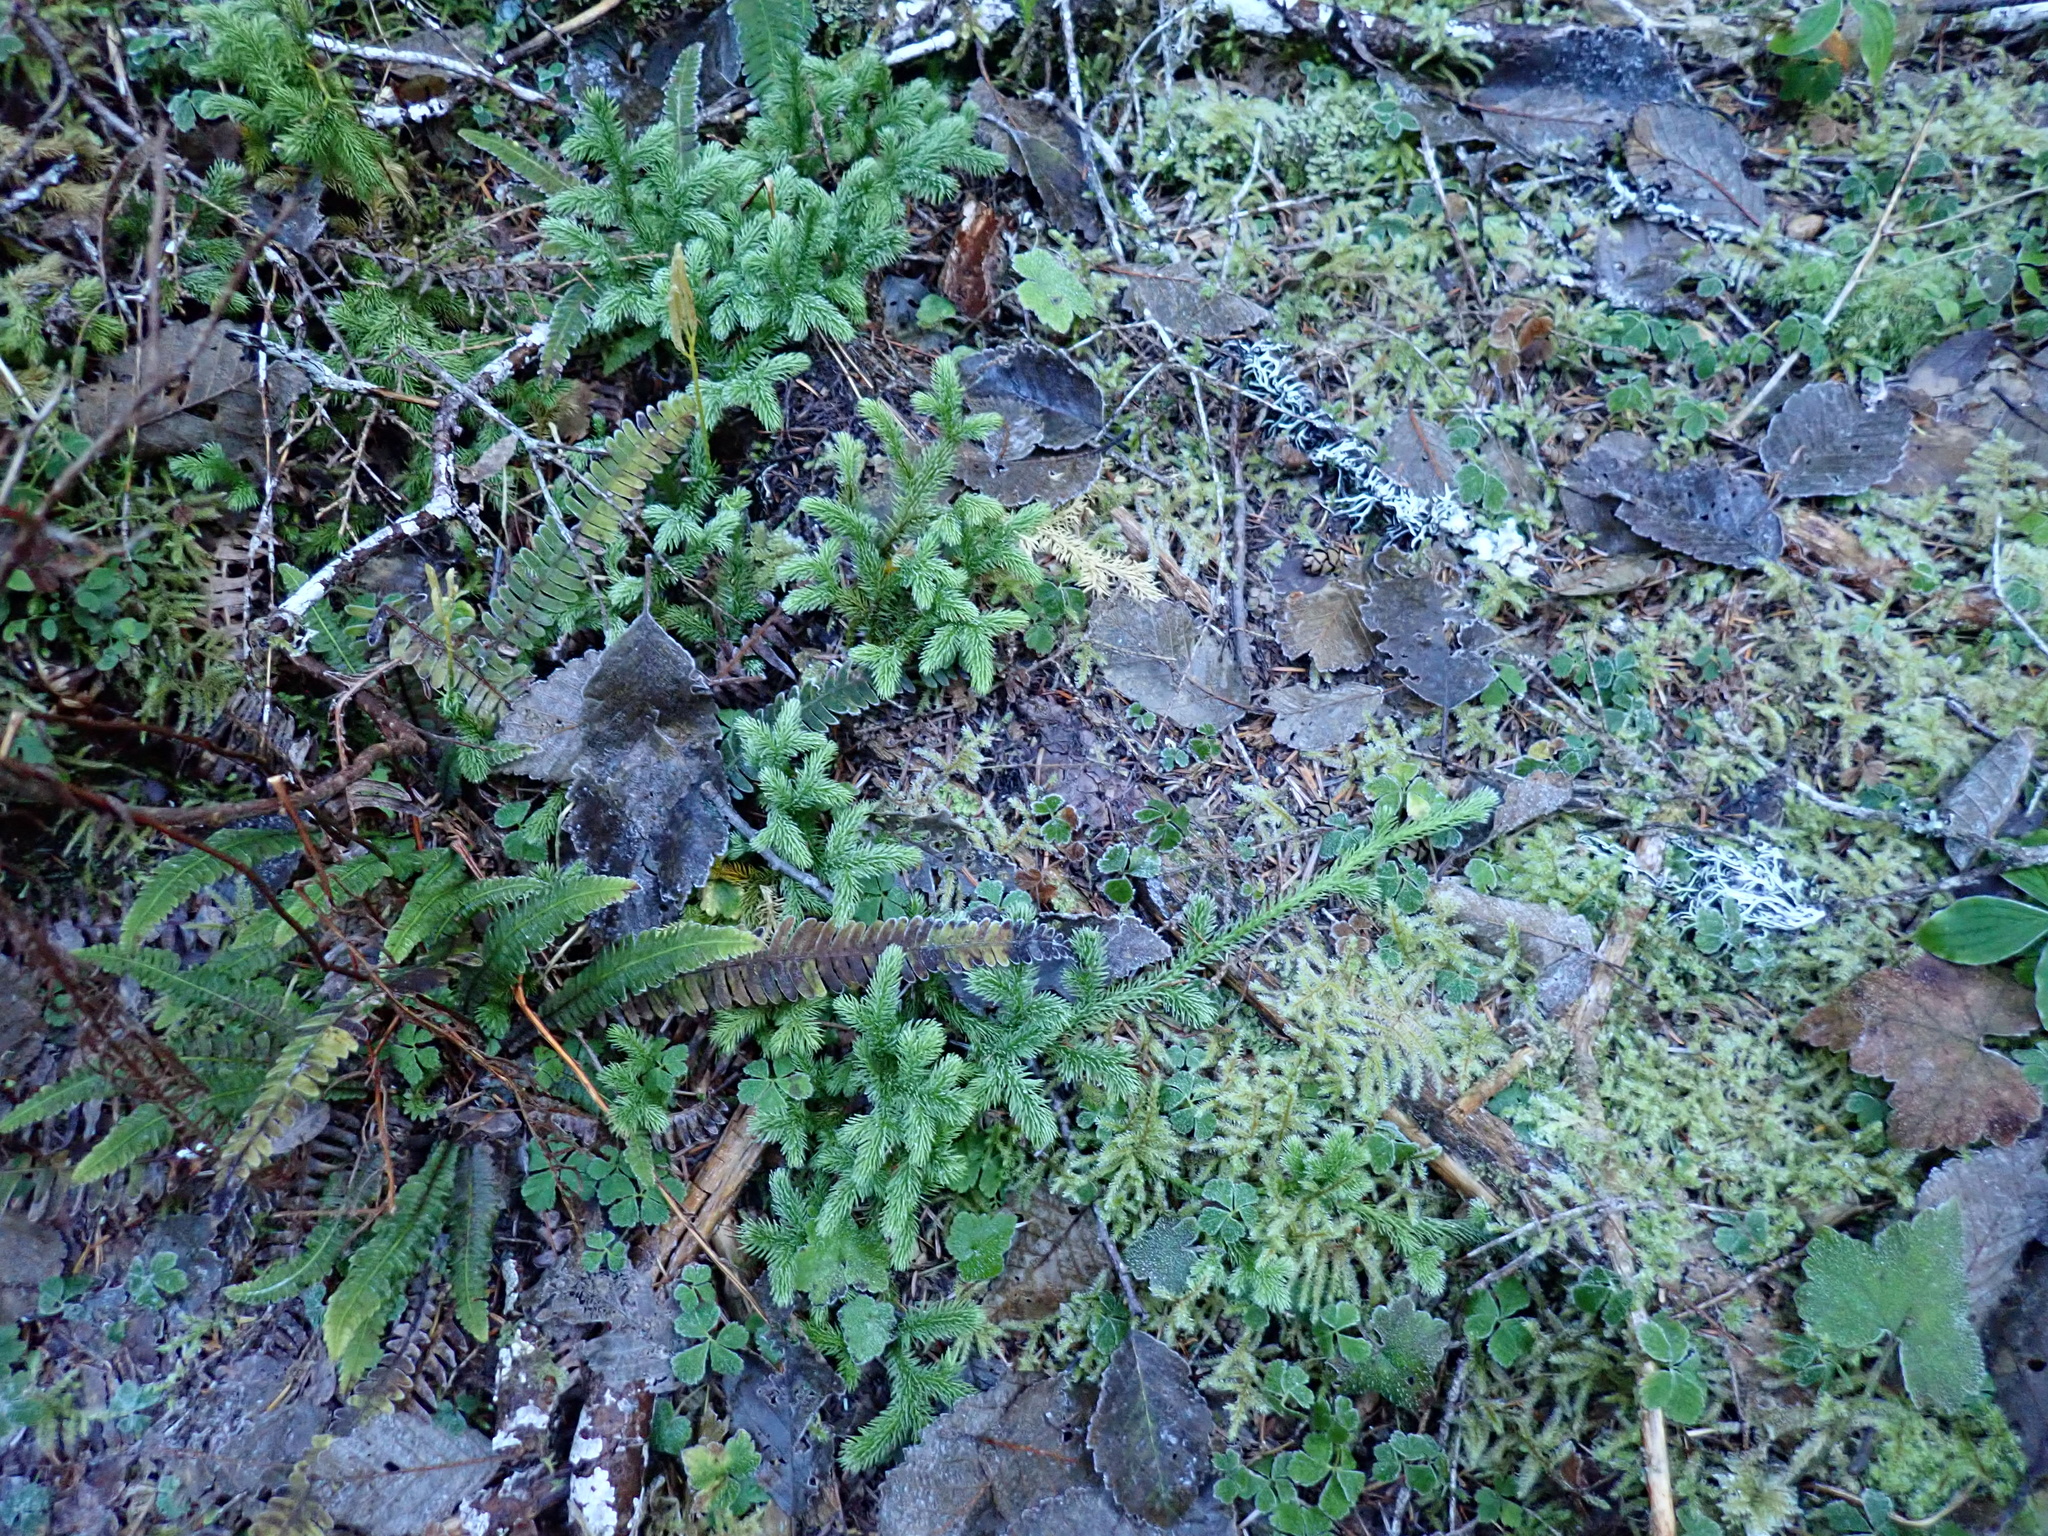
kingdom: Plantae
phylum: Tracheophyta
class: Lycopodiopsida
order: Lycopodiales
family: Lycopodiaceae
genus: Lycopodium
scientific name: Lycopodium clavatum
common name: Stag's-horn clubmoss
